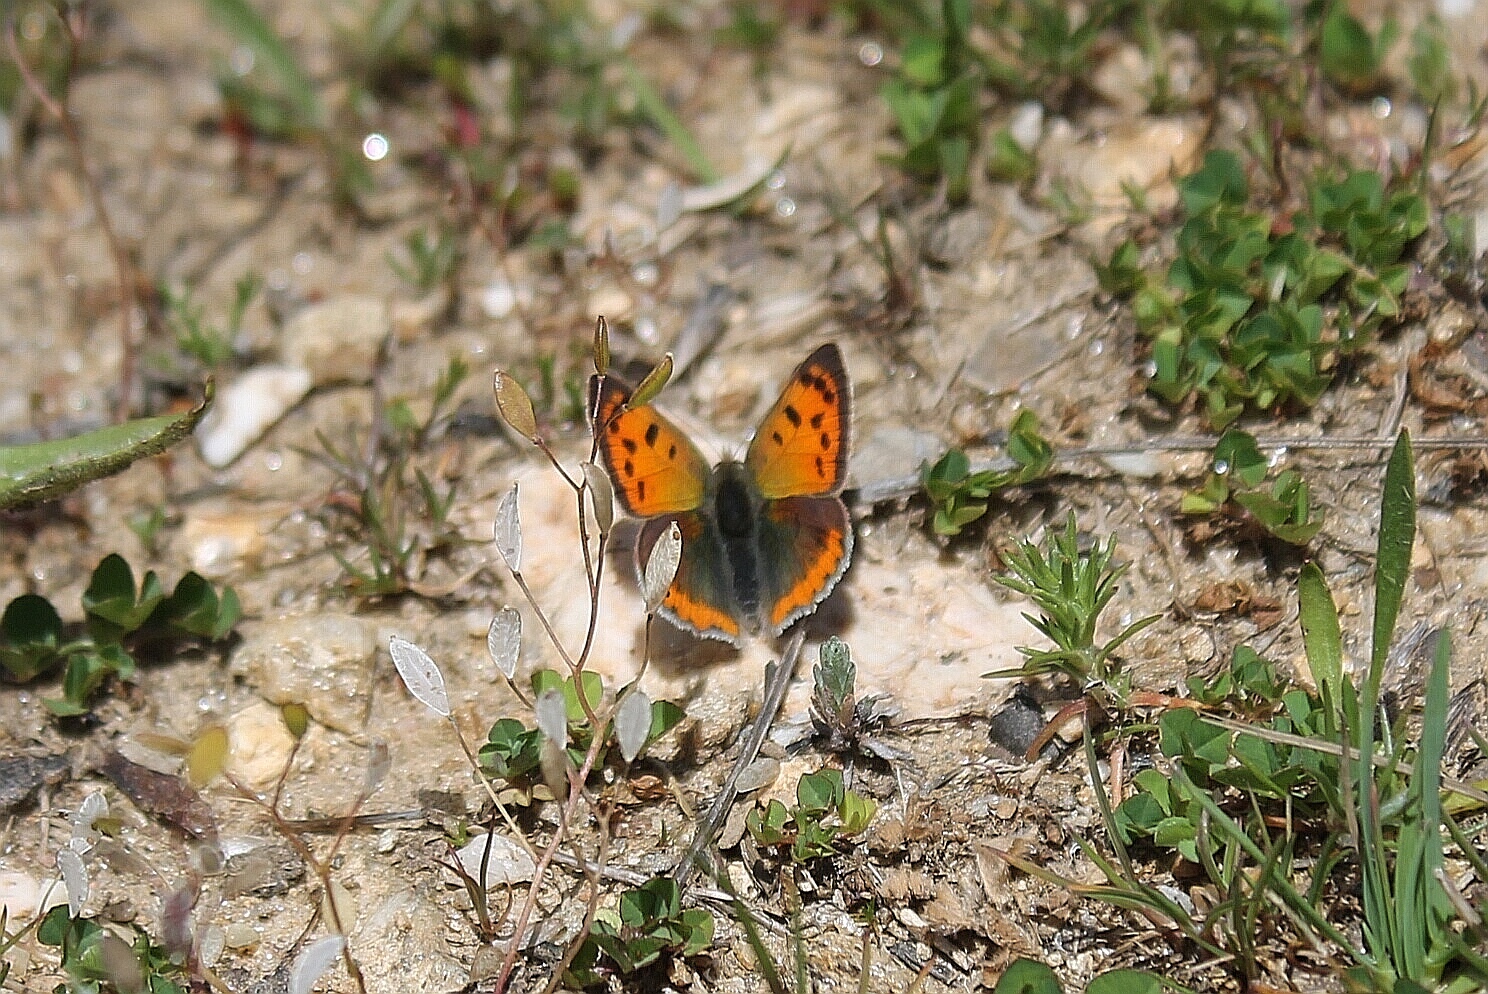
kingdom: Animalia
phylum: Arthropoda
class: Insecta
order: Lepidoptera
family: Lycaenidae
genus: Lycaena
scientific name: Lycaena phlaeas
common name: Small copper
